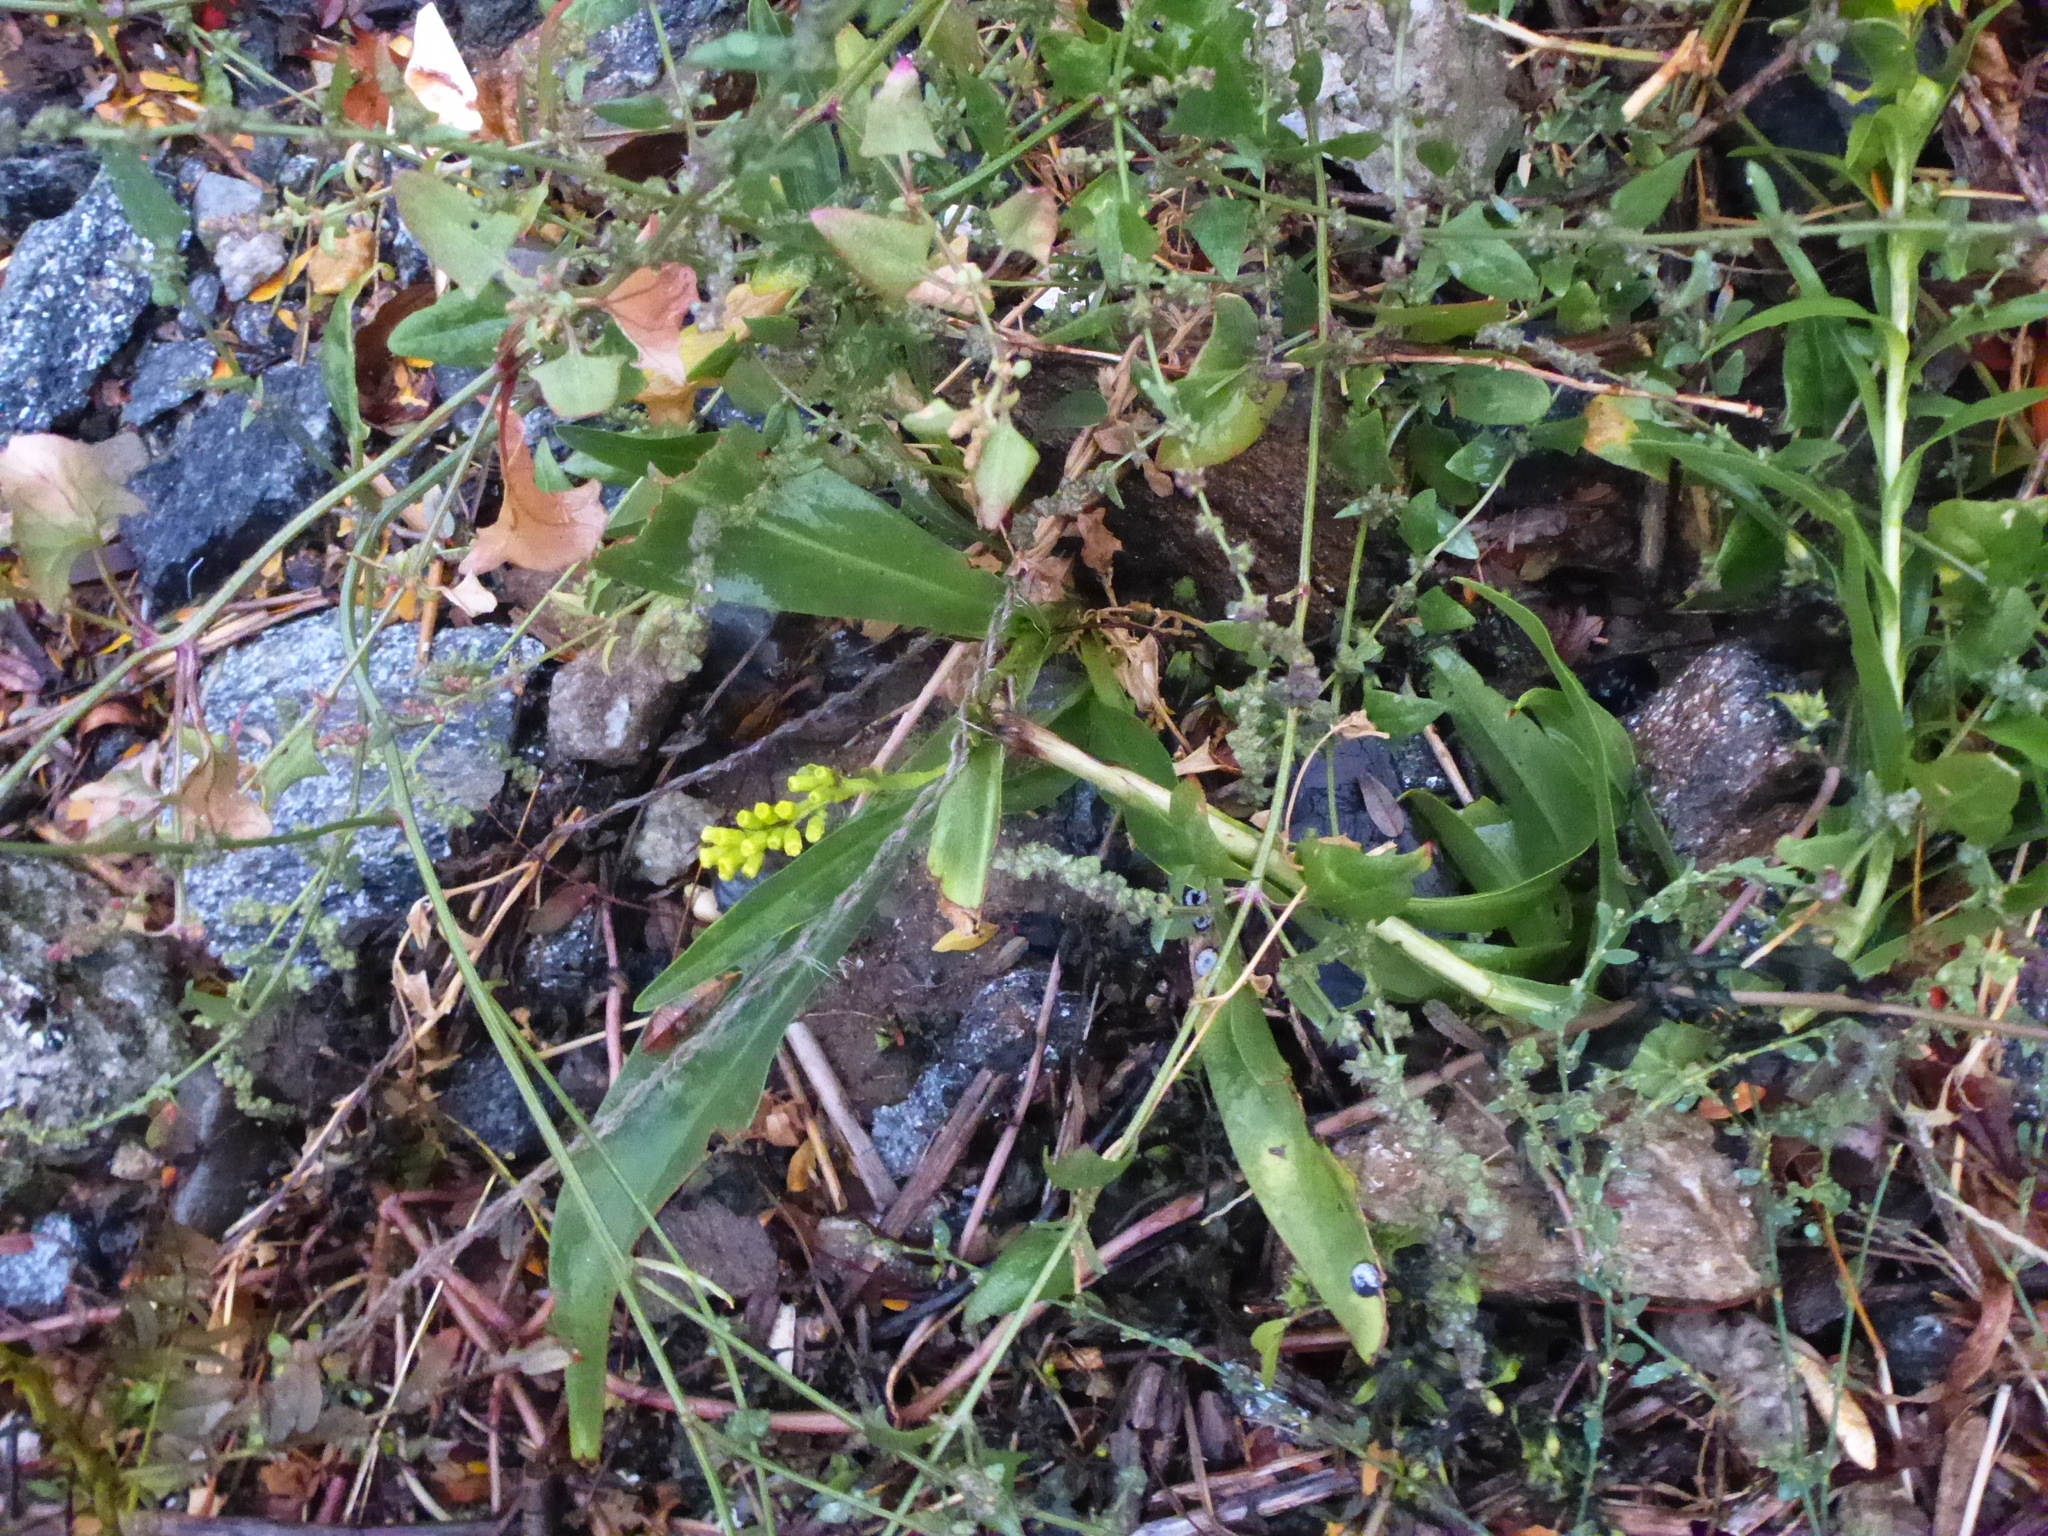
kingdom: Plantae
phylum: Tracheophyta
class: Magnoliopsida
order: Asterales
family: Asteraceae
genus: Solidago
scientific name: Solidago sempervirens
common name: Salt-marsh goldenrod
